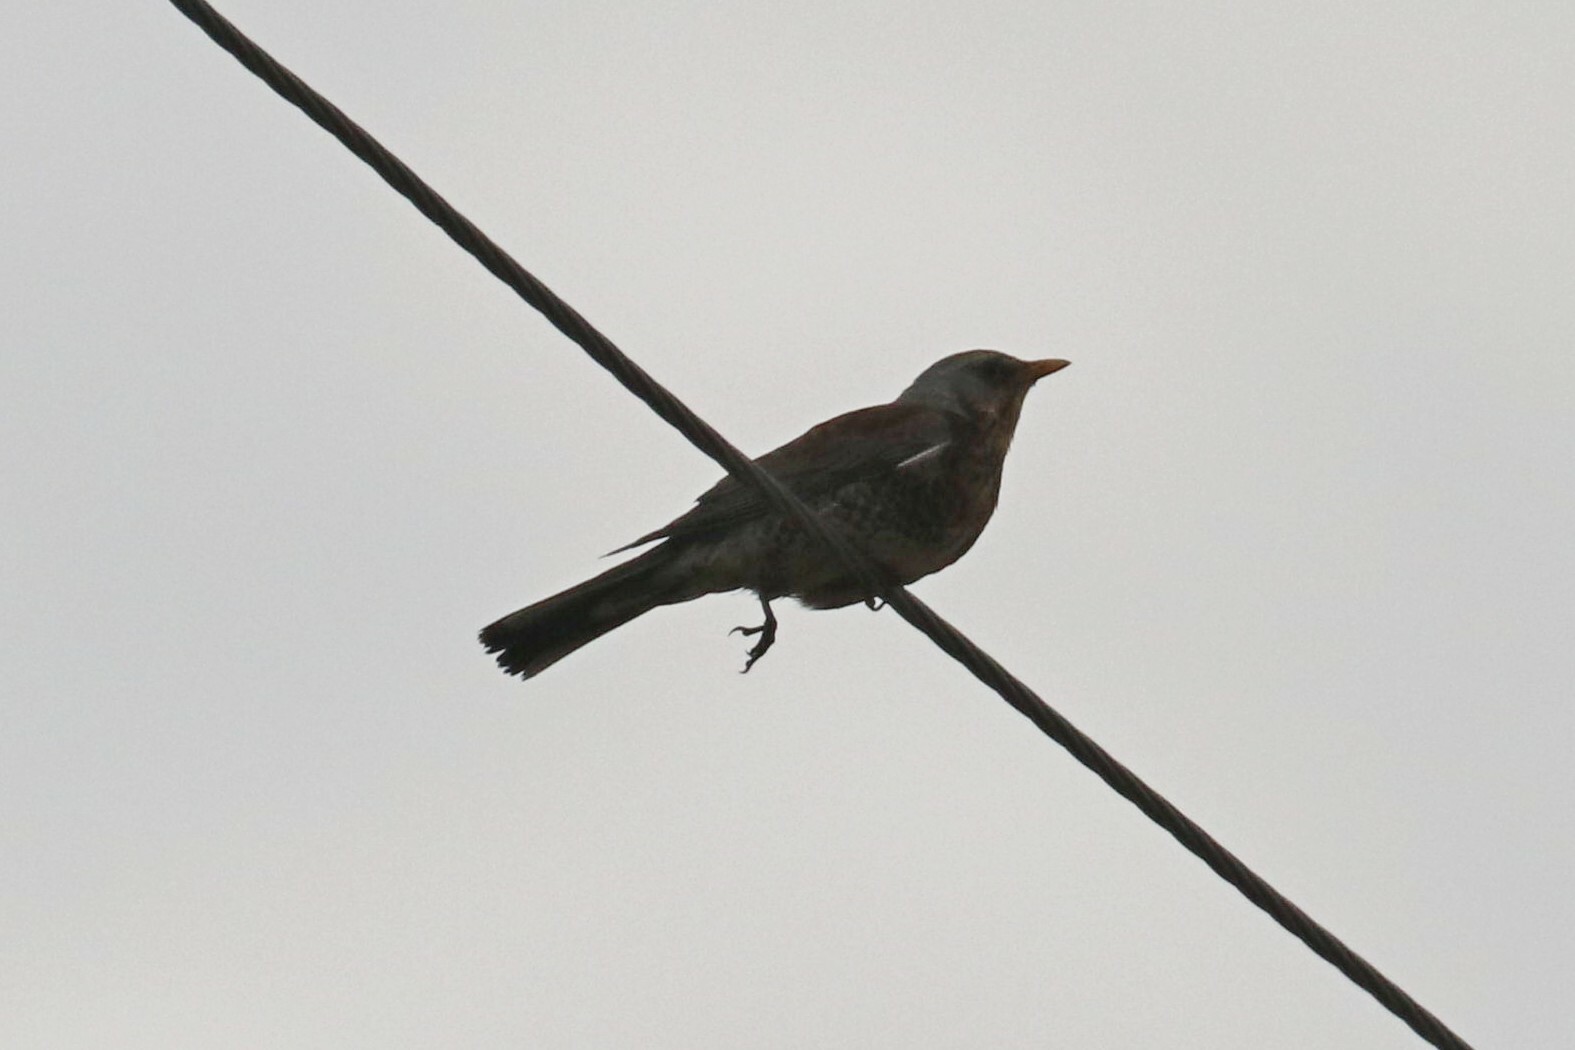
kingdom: Animalia
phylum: Chordata
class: Aves
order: Passeriformes
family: Turdidae
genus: Turdus
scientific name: Turdus pilaris
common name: Fieldfare
